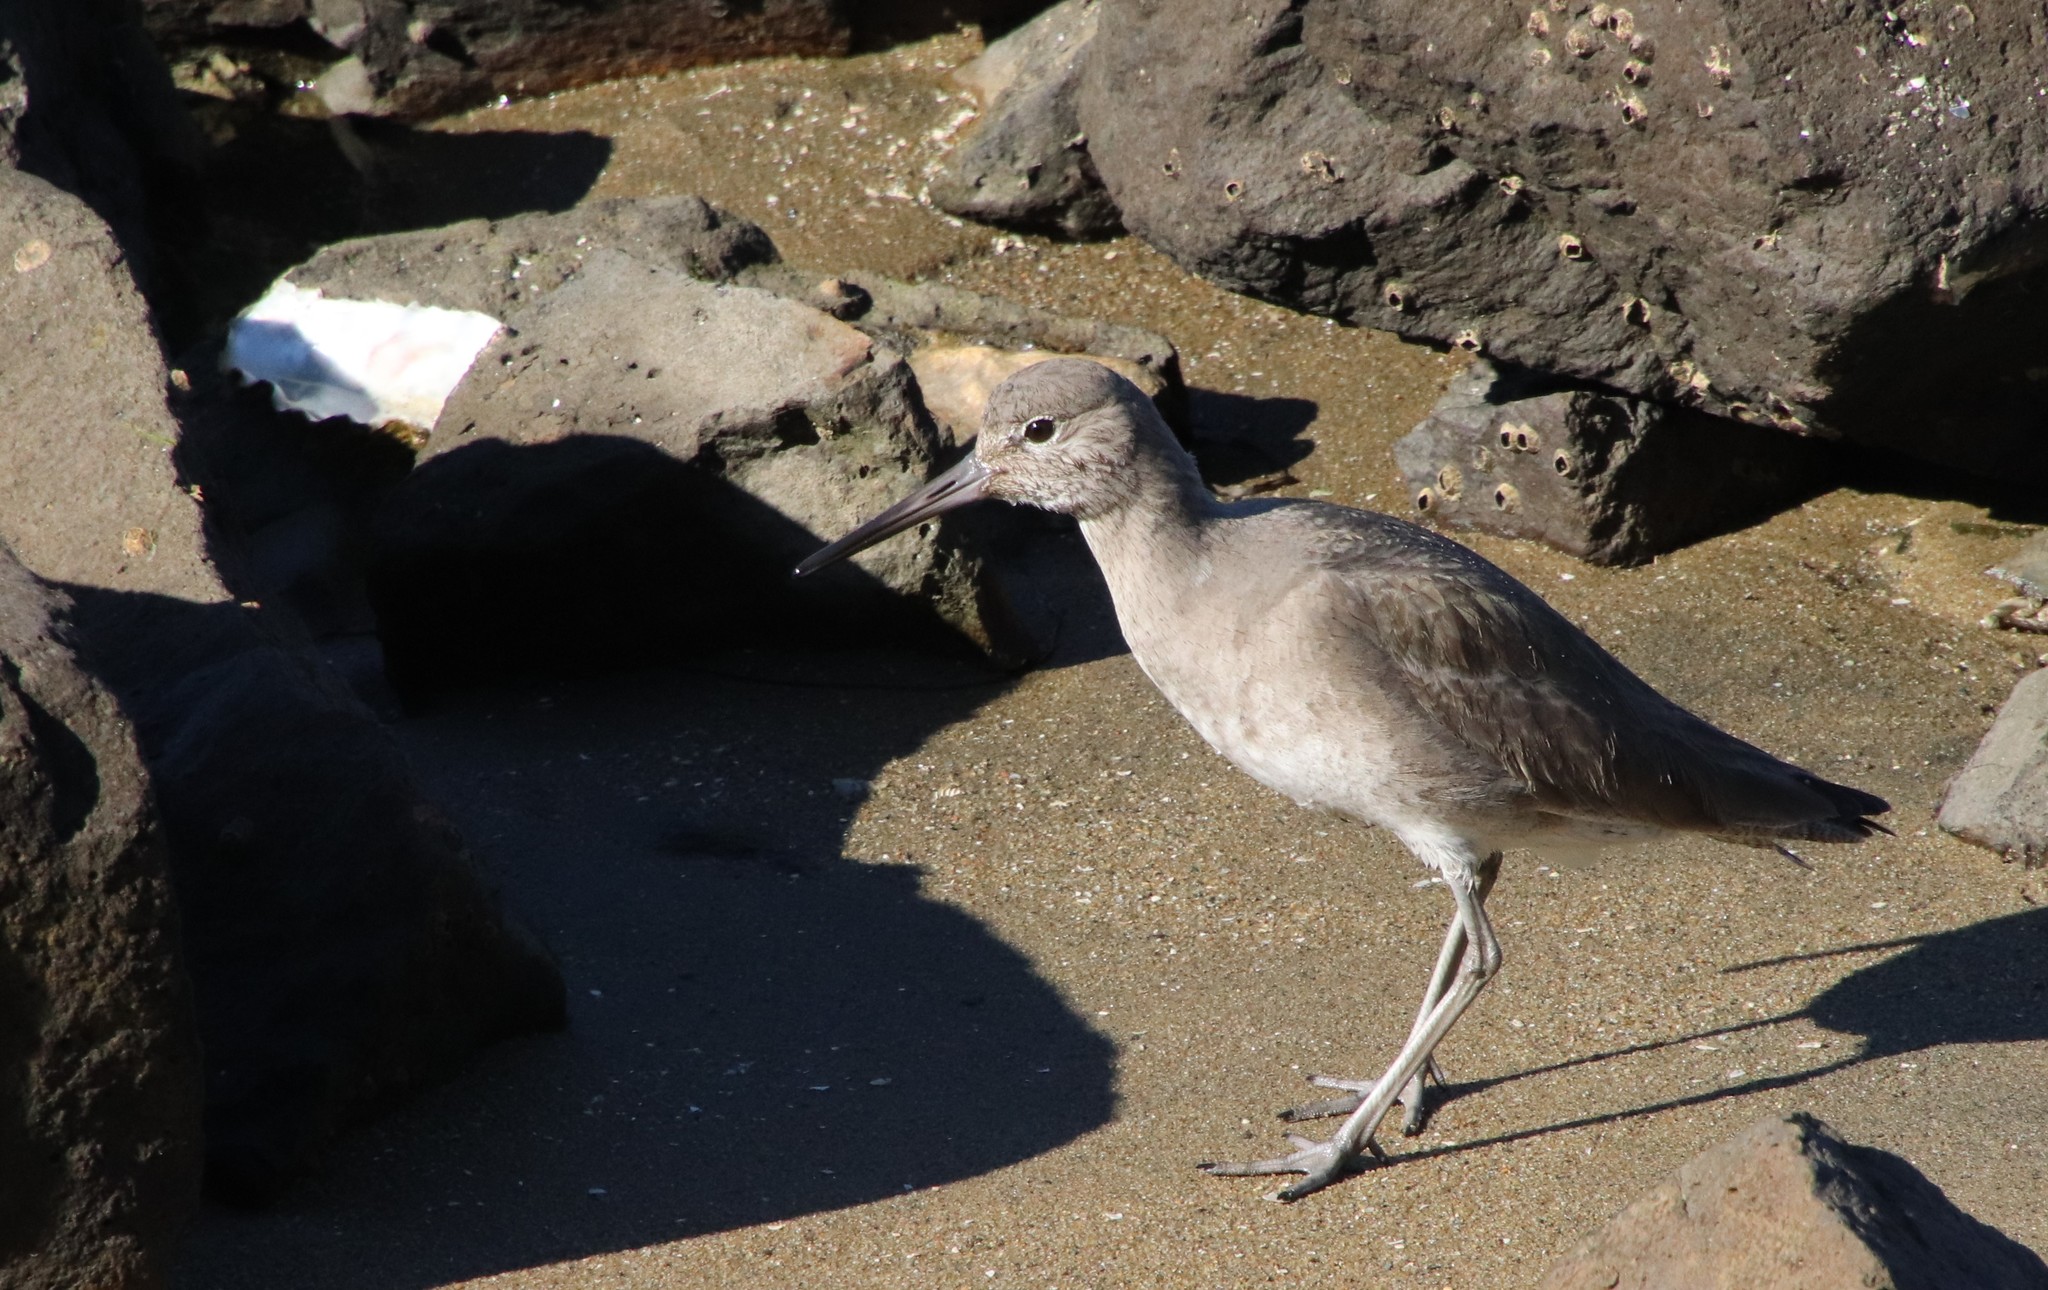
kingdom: Animalia
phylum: Chordata
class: Aves
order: Charadriiformes
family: Scolopacidae
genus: Tringa
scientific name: Tringa semipalmata
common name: Willet
